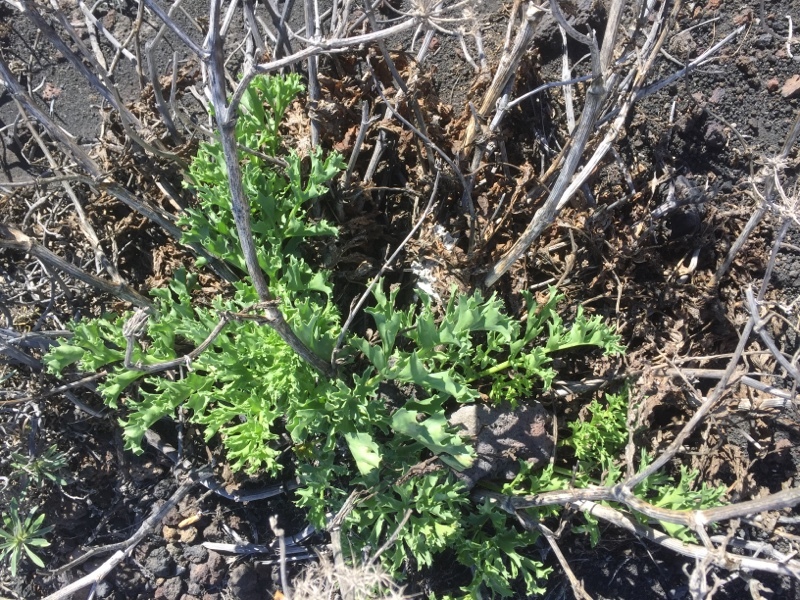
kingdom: Plantae
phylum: Tracheophyta
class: Magnoliopsida
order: Apiales
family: Apiaceae
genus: Astydamia
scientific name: Astydamia latifolia
